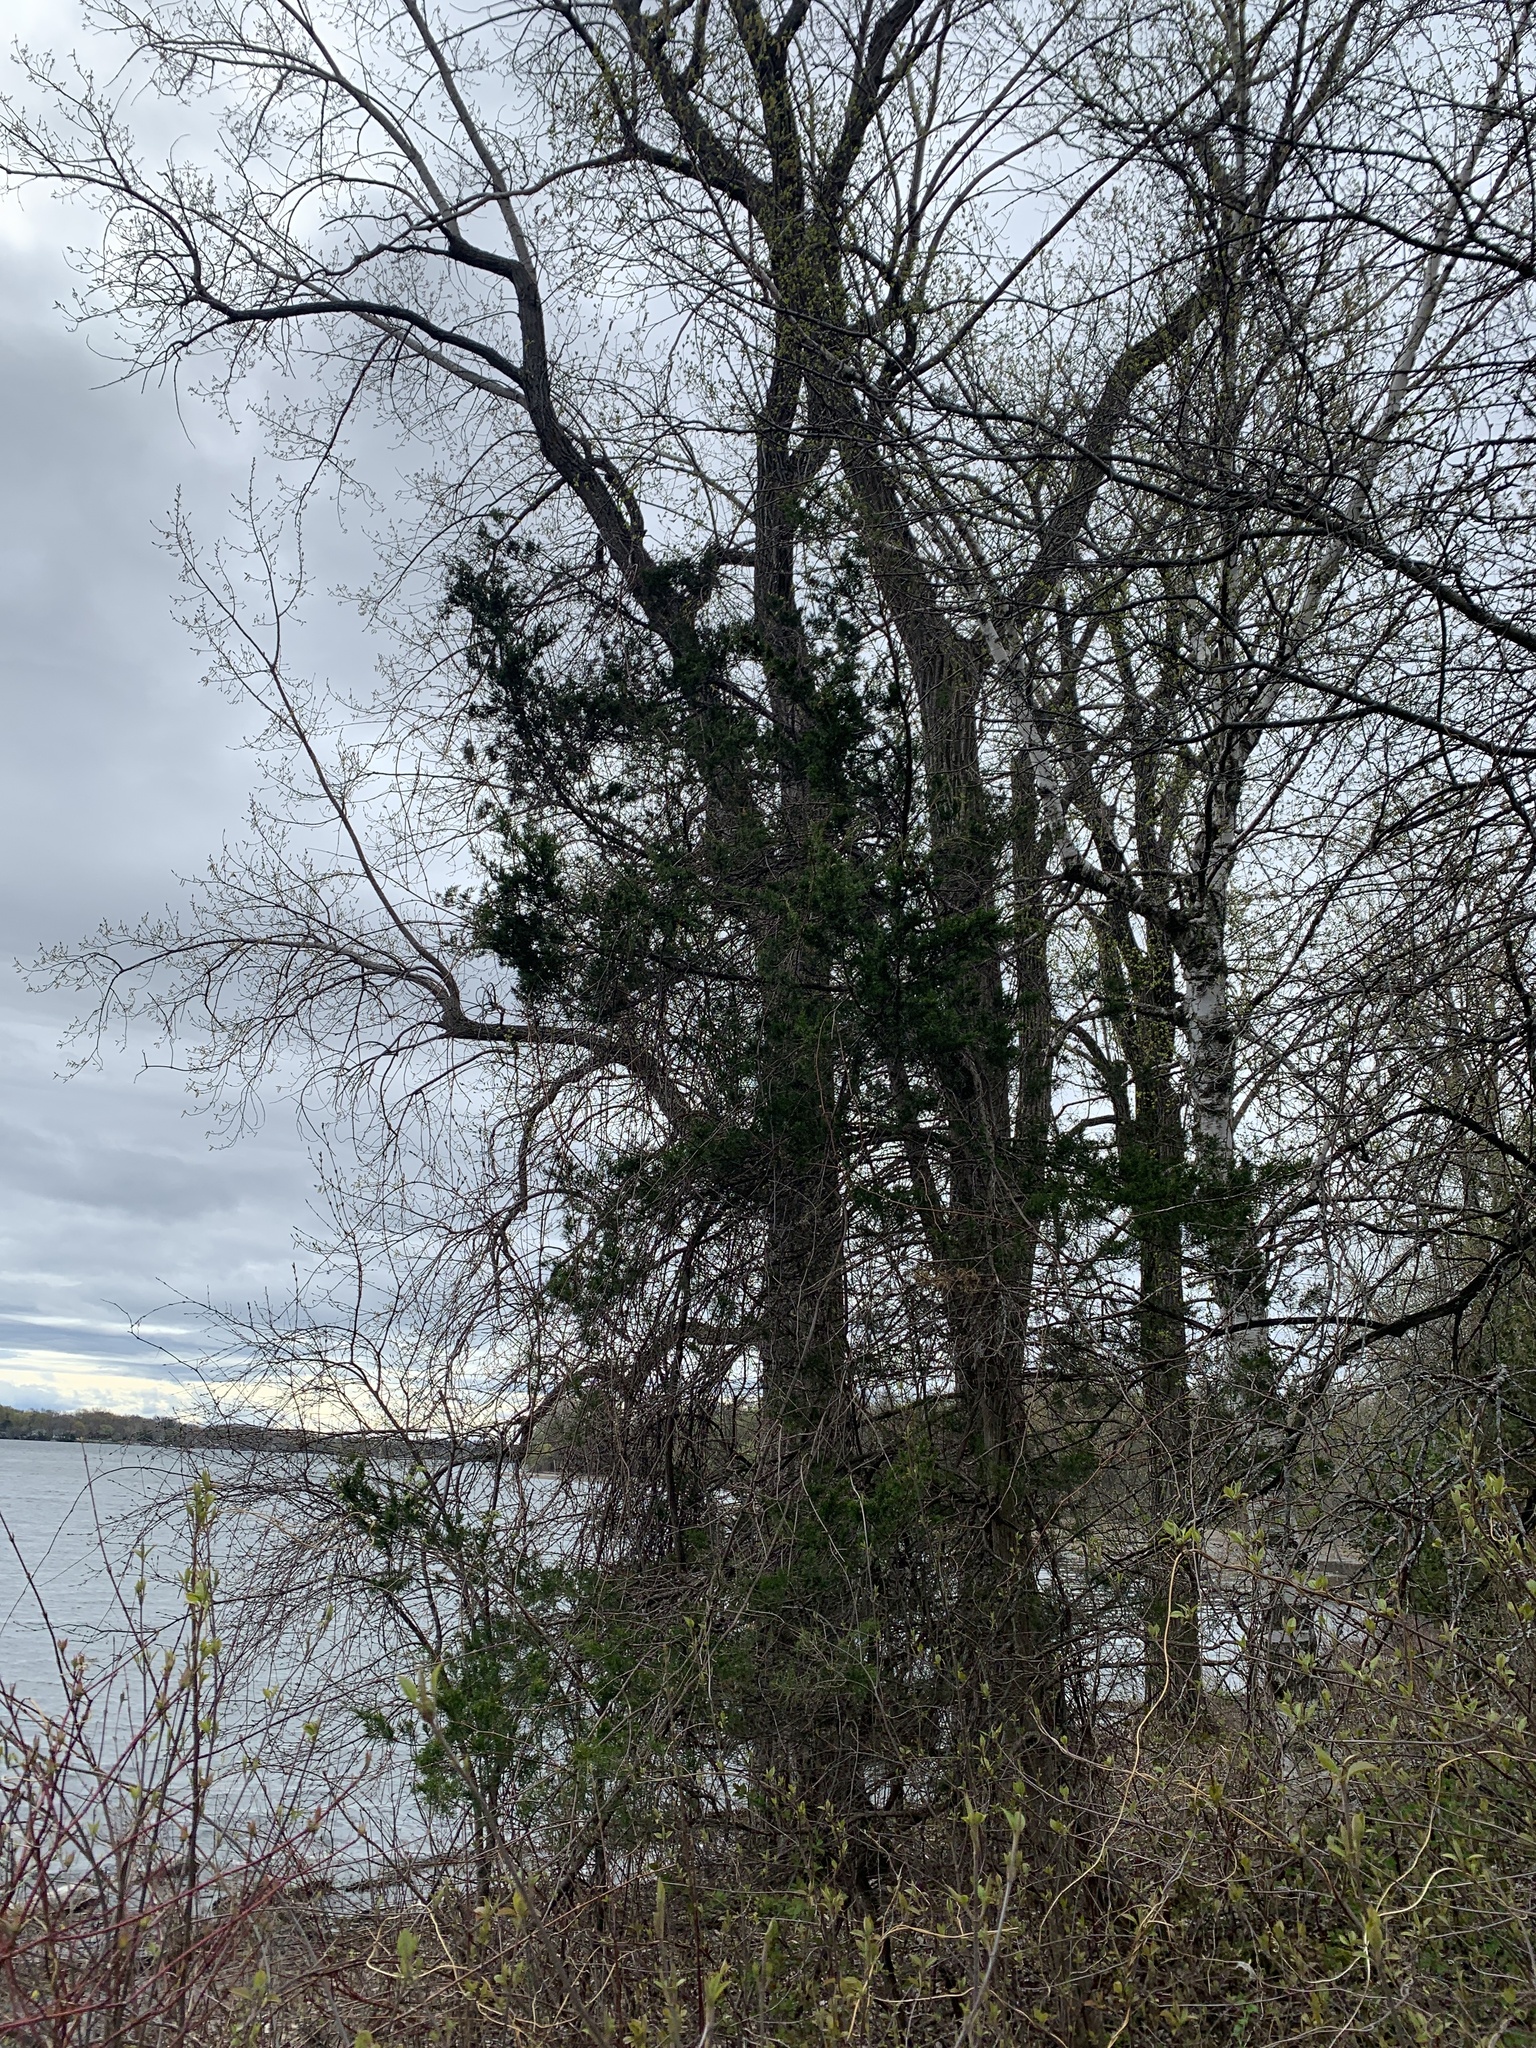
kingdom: Plantae
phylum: Tracheophyta
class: Pinopsida
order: Pinales
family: Cupressaceae
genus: Juniperus
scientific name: Juniperus virginiana
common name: Red juniper
